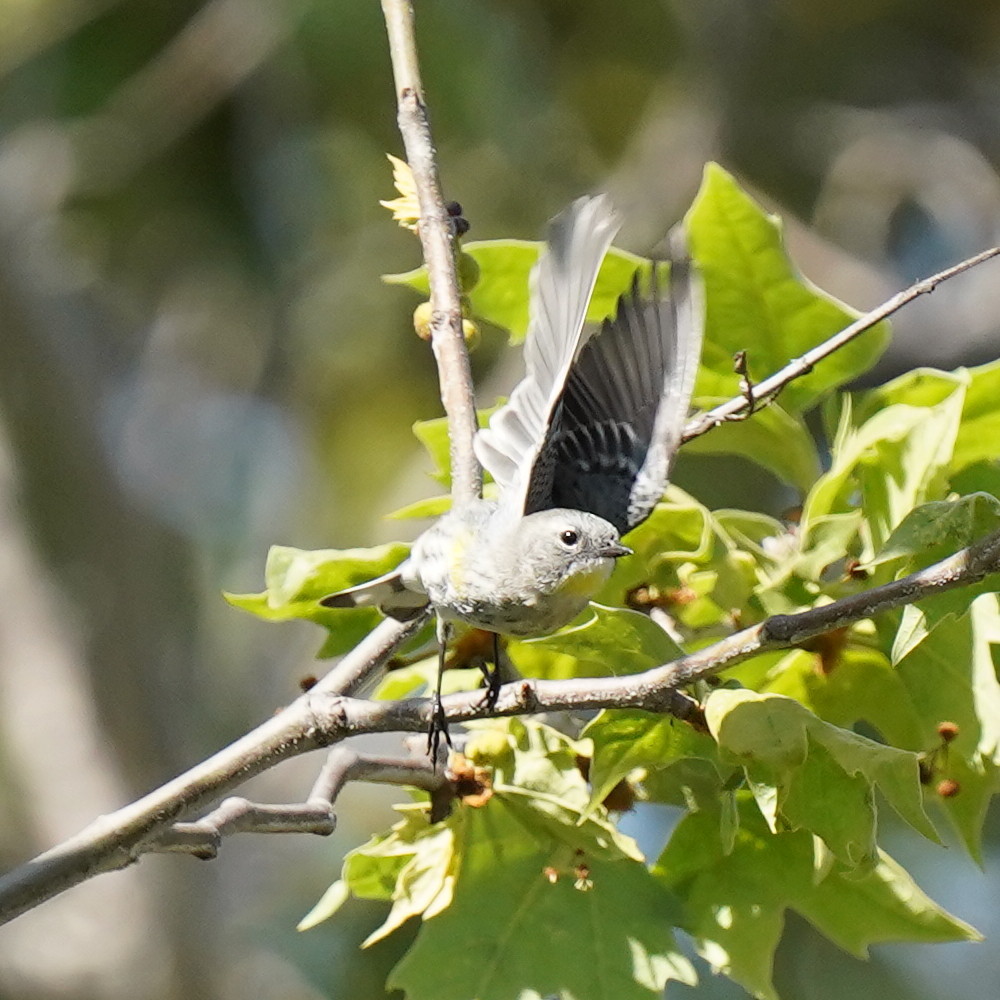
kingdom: Animalia
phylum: Chordata
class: Aves
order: Passeriformes
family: Parulidae
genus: Setophaga
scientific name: Setophaga coronata
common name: Myrtle warbler
